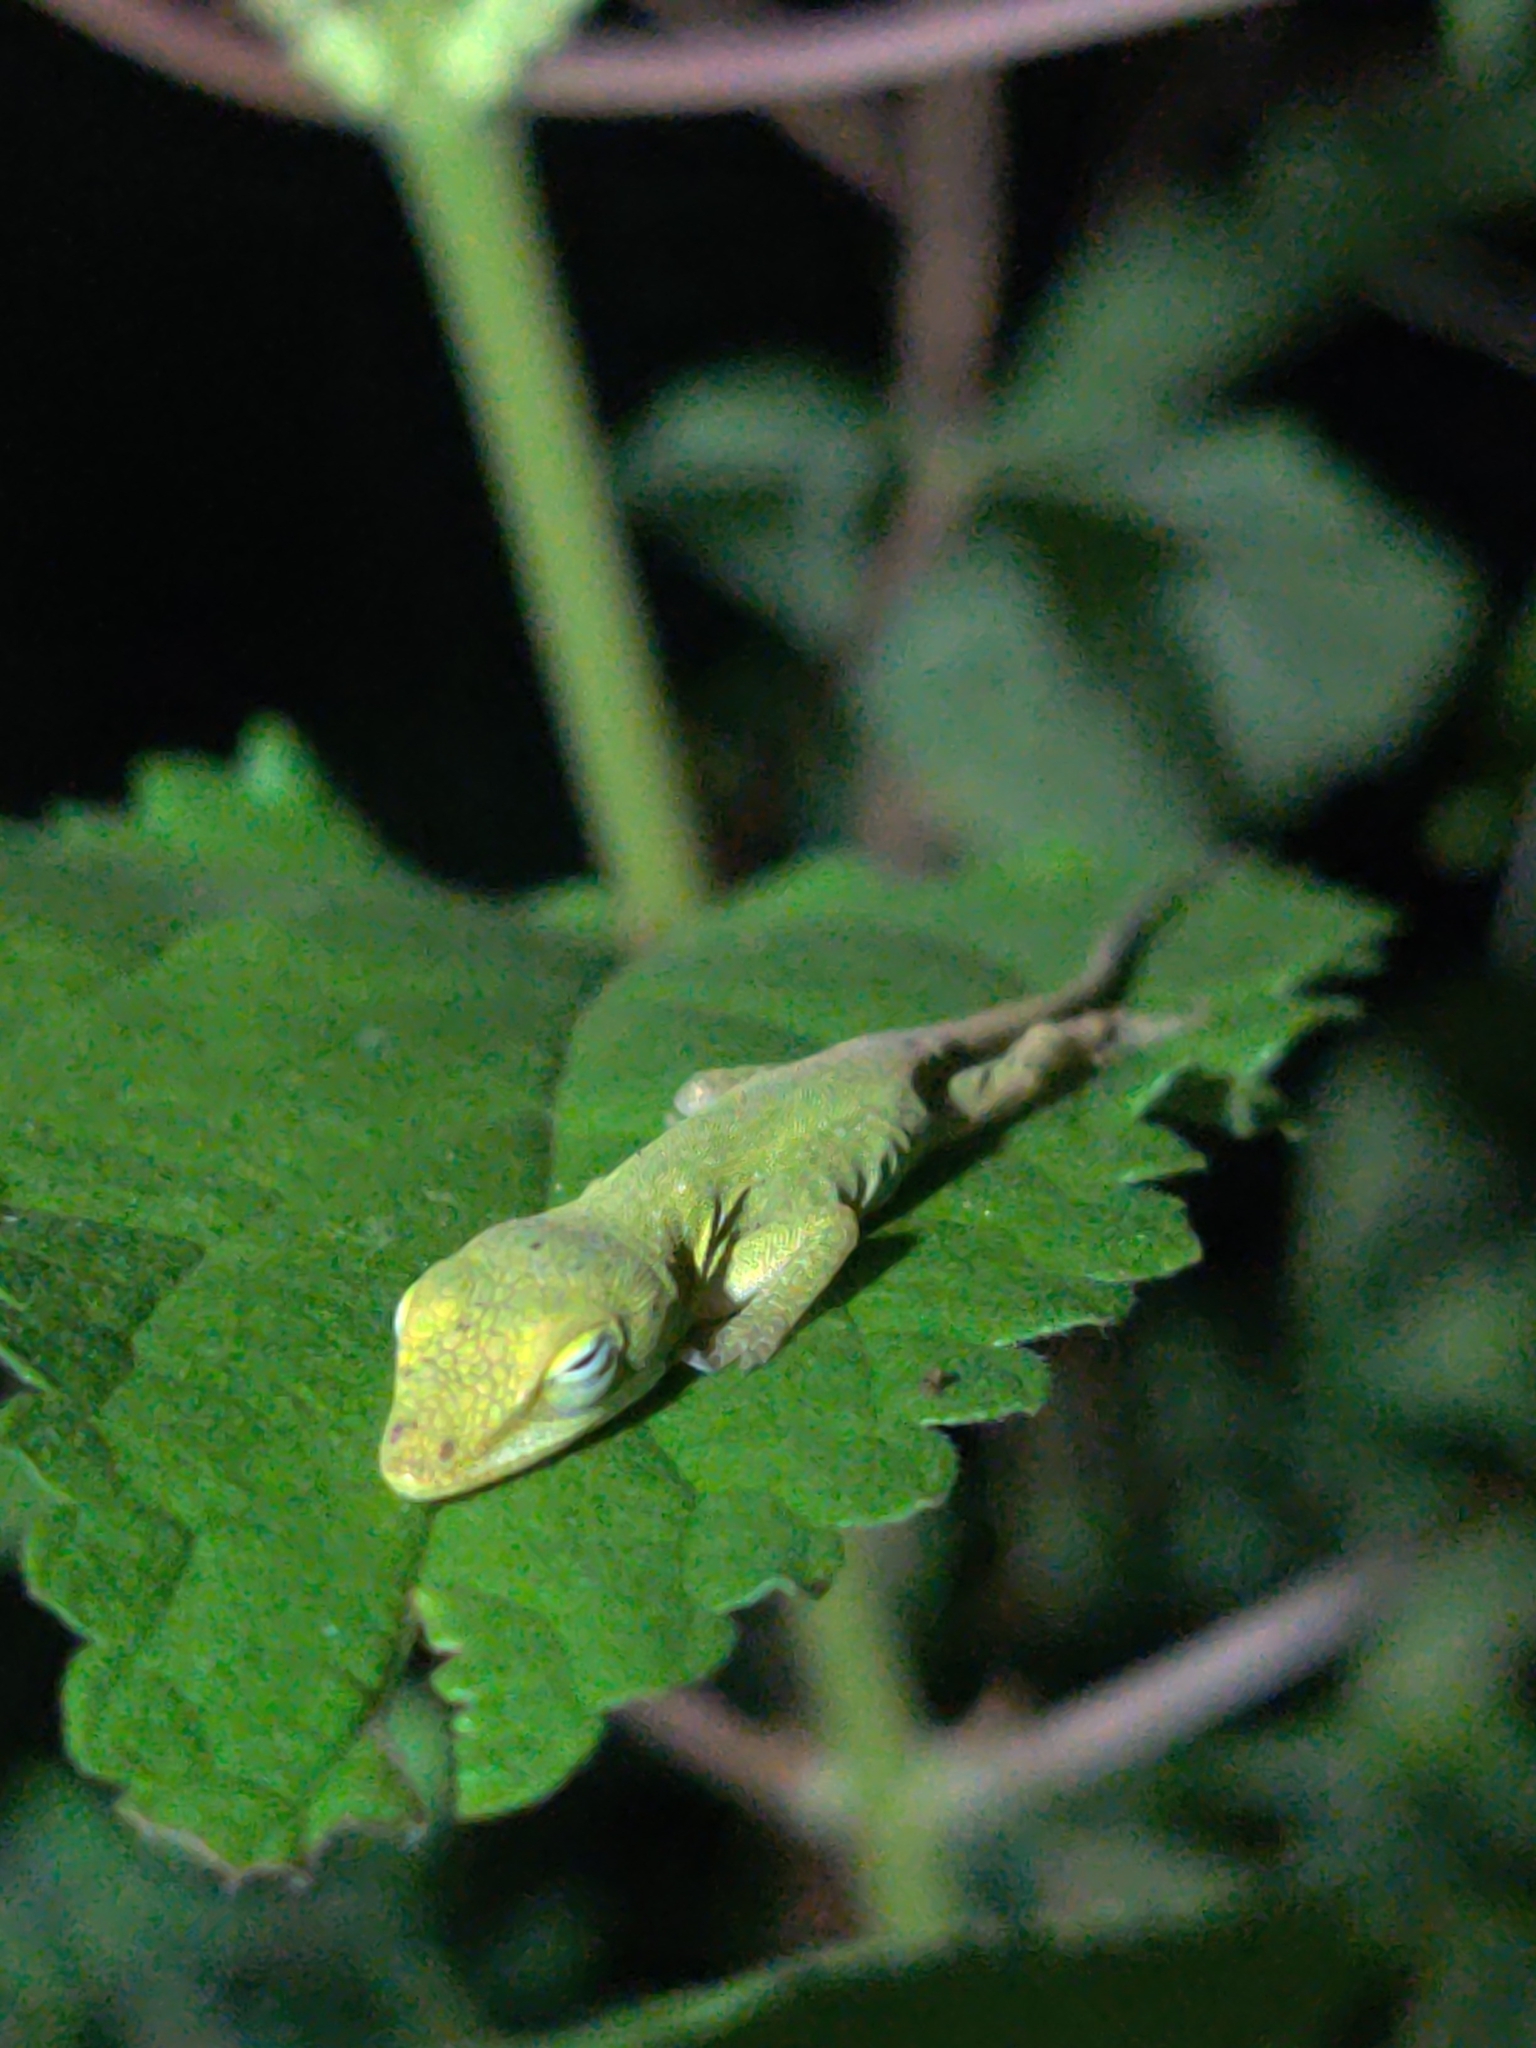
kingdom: Animalia
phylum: Chordata
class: Squamata
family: Dactyloidae
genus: Anolis
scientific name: Anolis carolinensis
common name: Green anole
